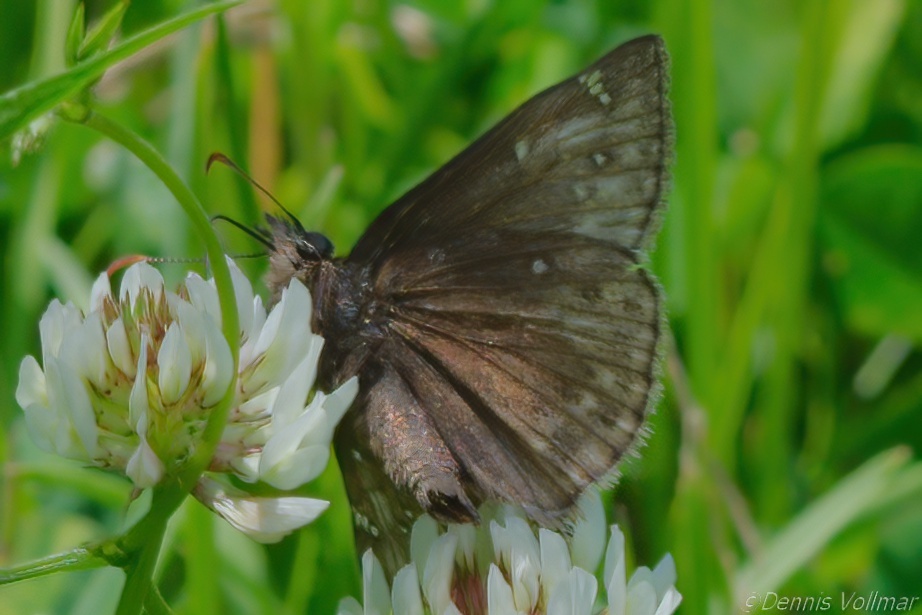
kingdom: Animalia
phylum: Arthropoda
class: Insecta
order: Lepidoptera
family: Hesperiidae
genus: Erynnis
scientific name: Erynnis juvenalis
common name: Juvenal's duskywing
